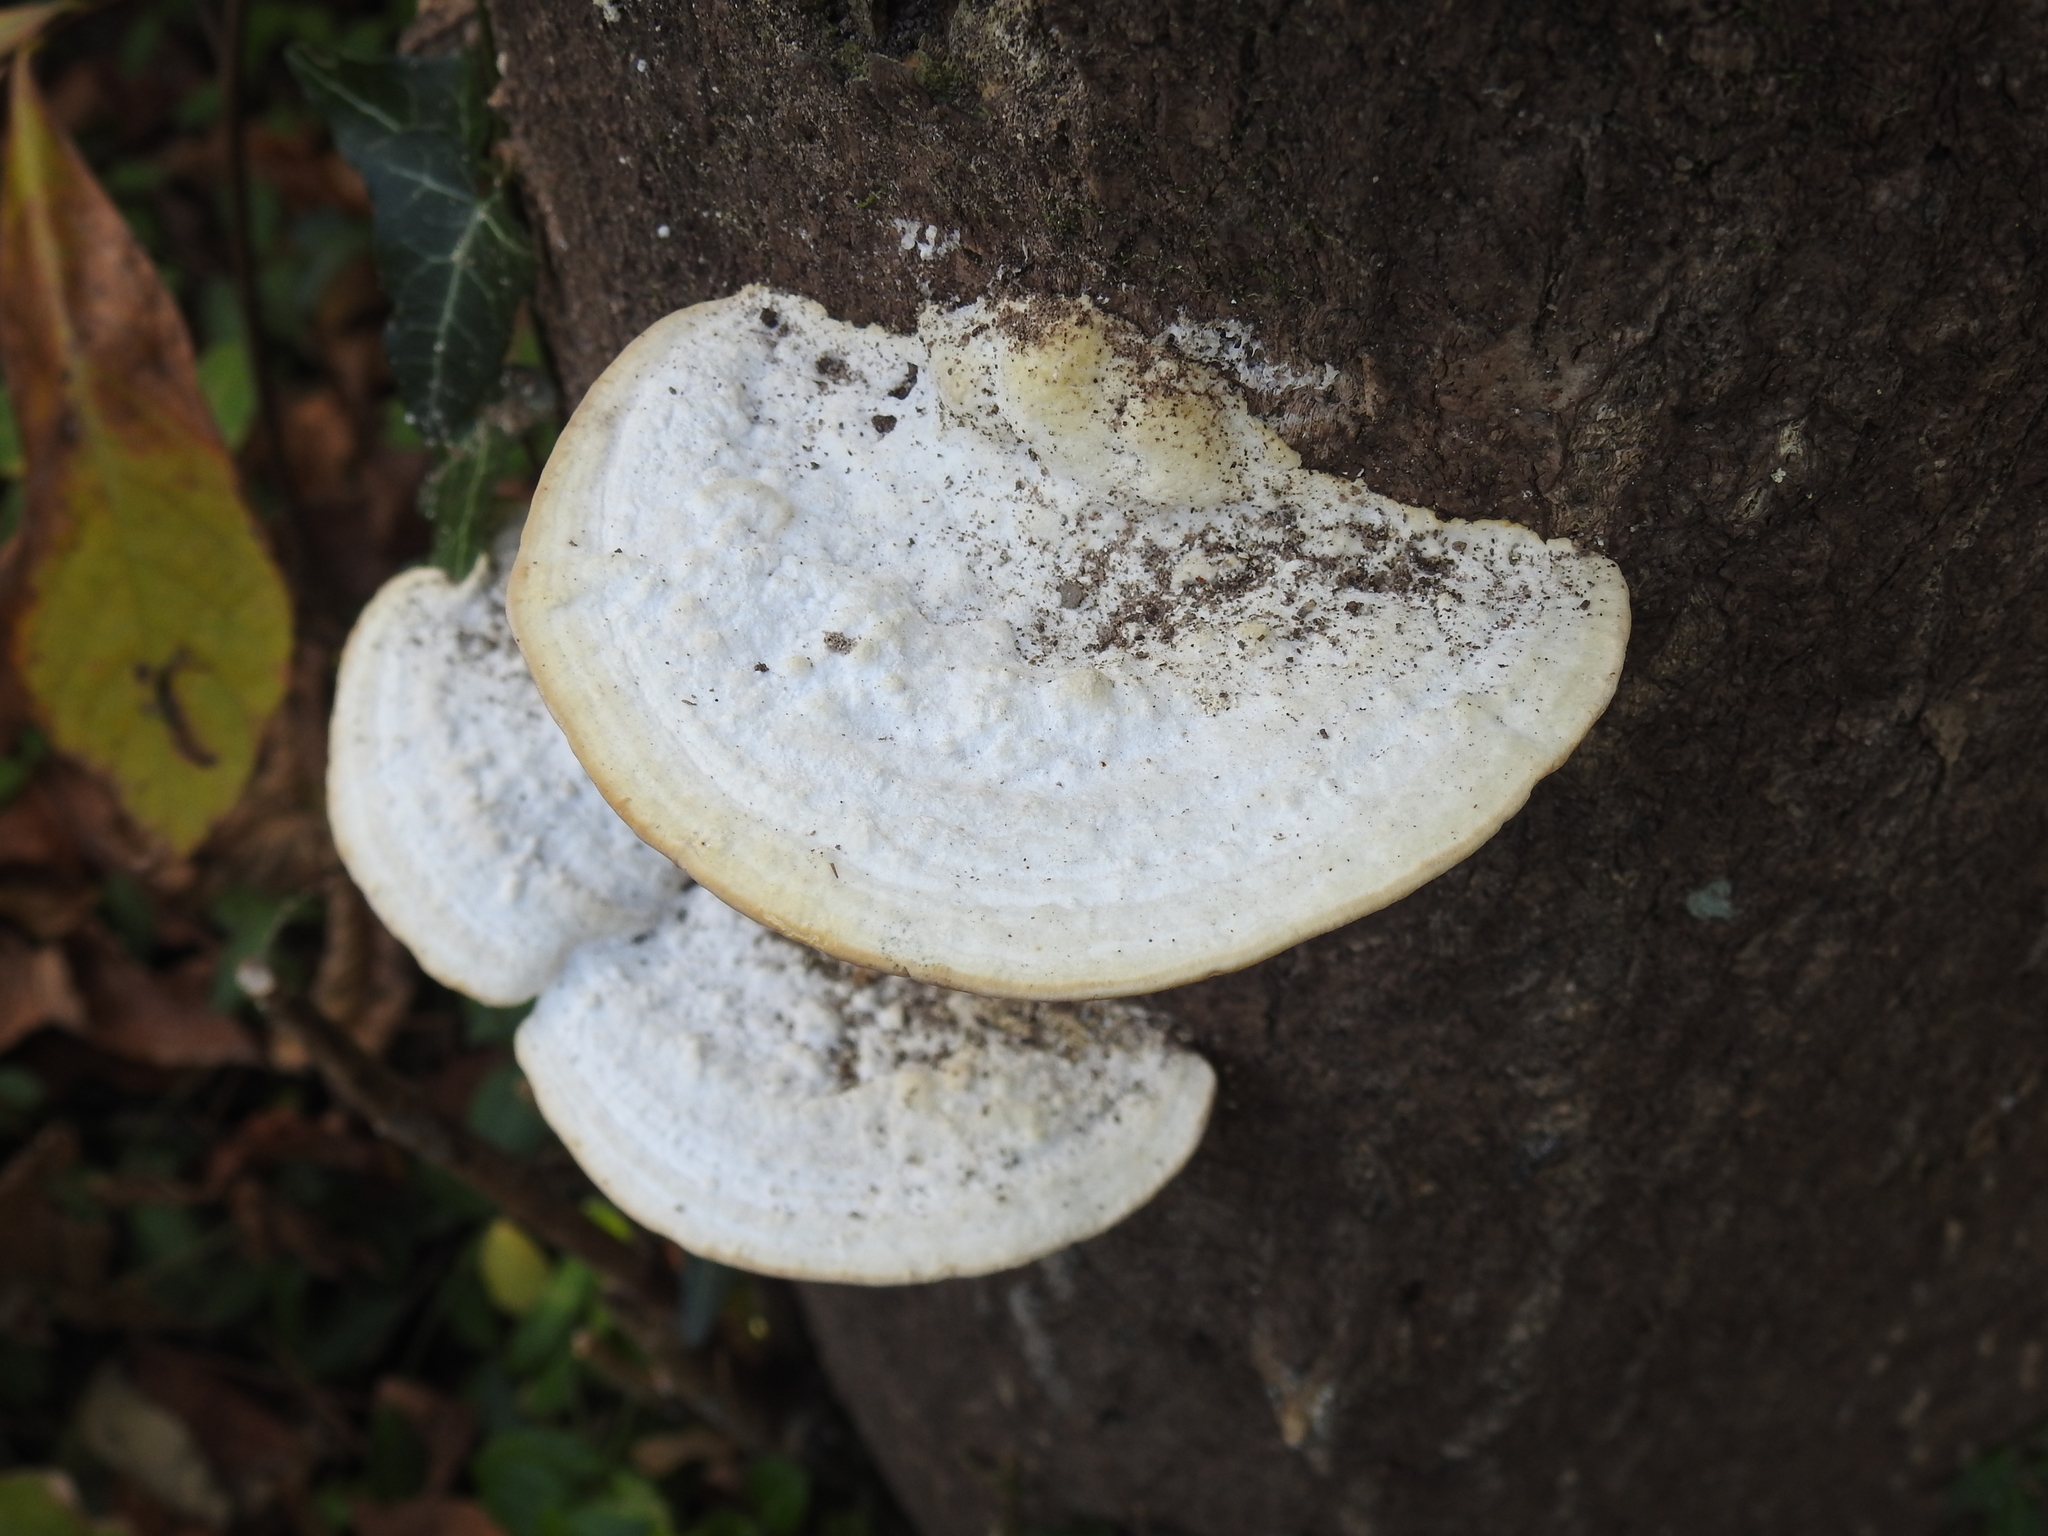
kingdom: Fungi
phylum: Basidiomycota
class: Agaricomycetes
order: Polyporales
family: Polyporaceae
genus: Trametes
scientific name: Trametes gibbosa
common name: Lumpy bracket
